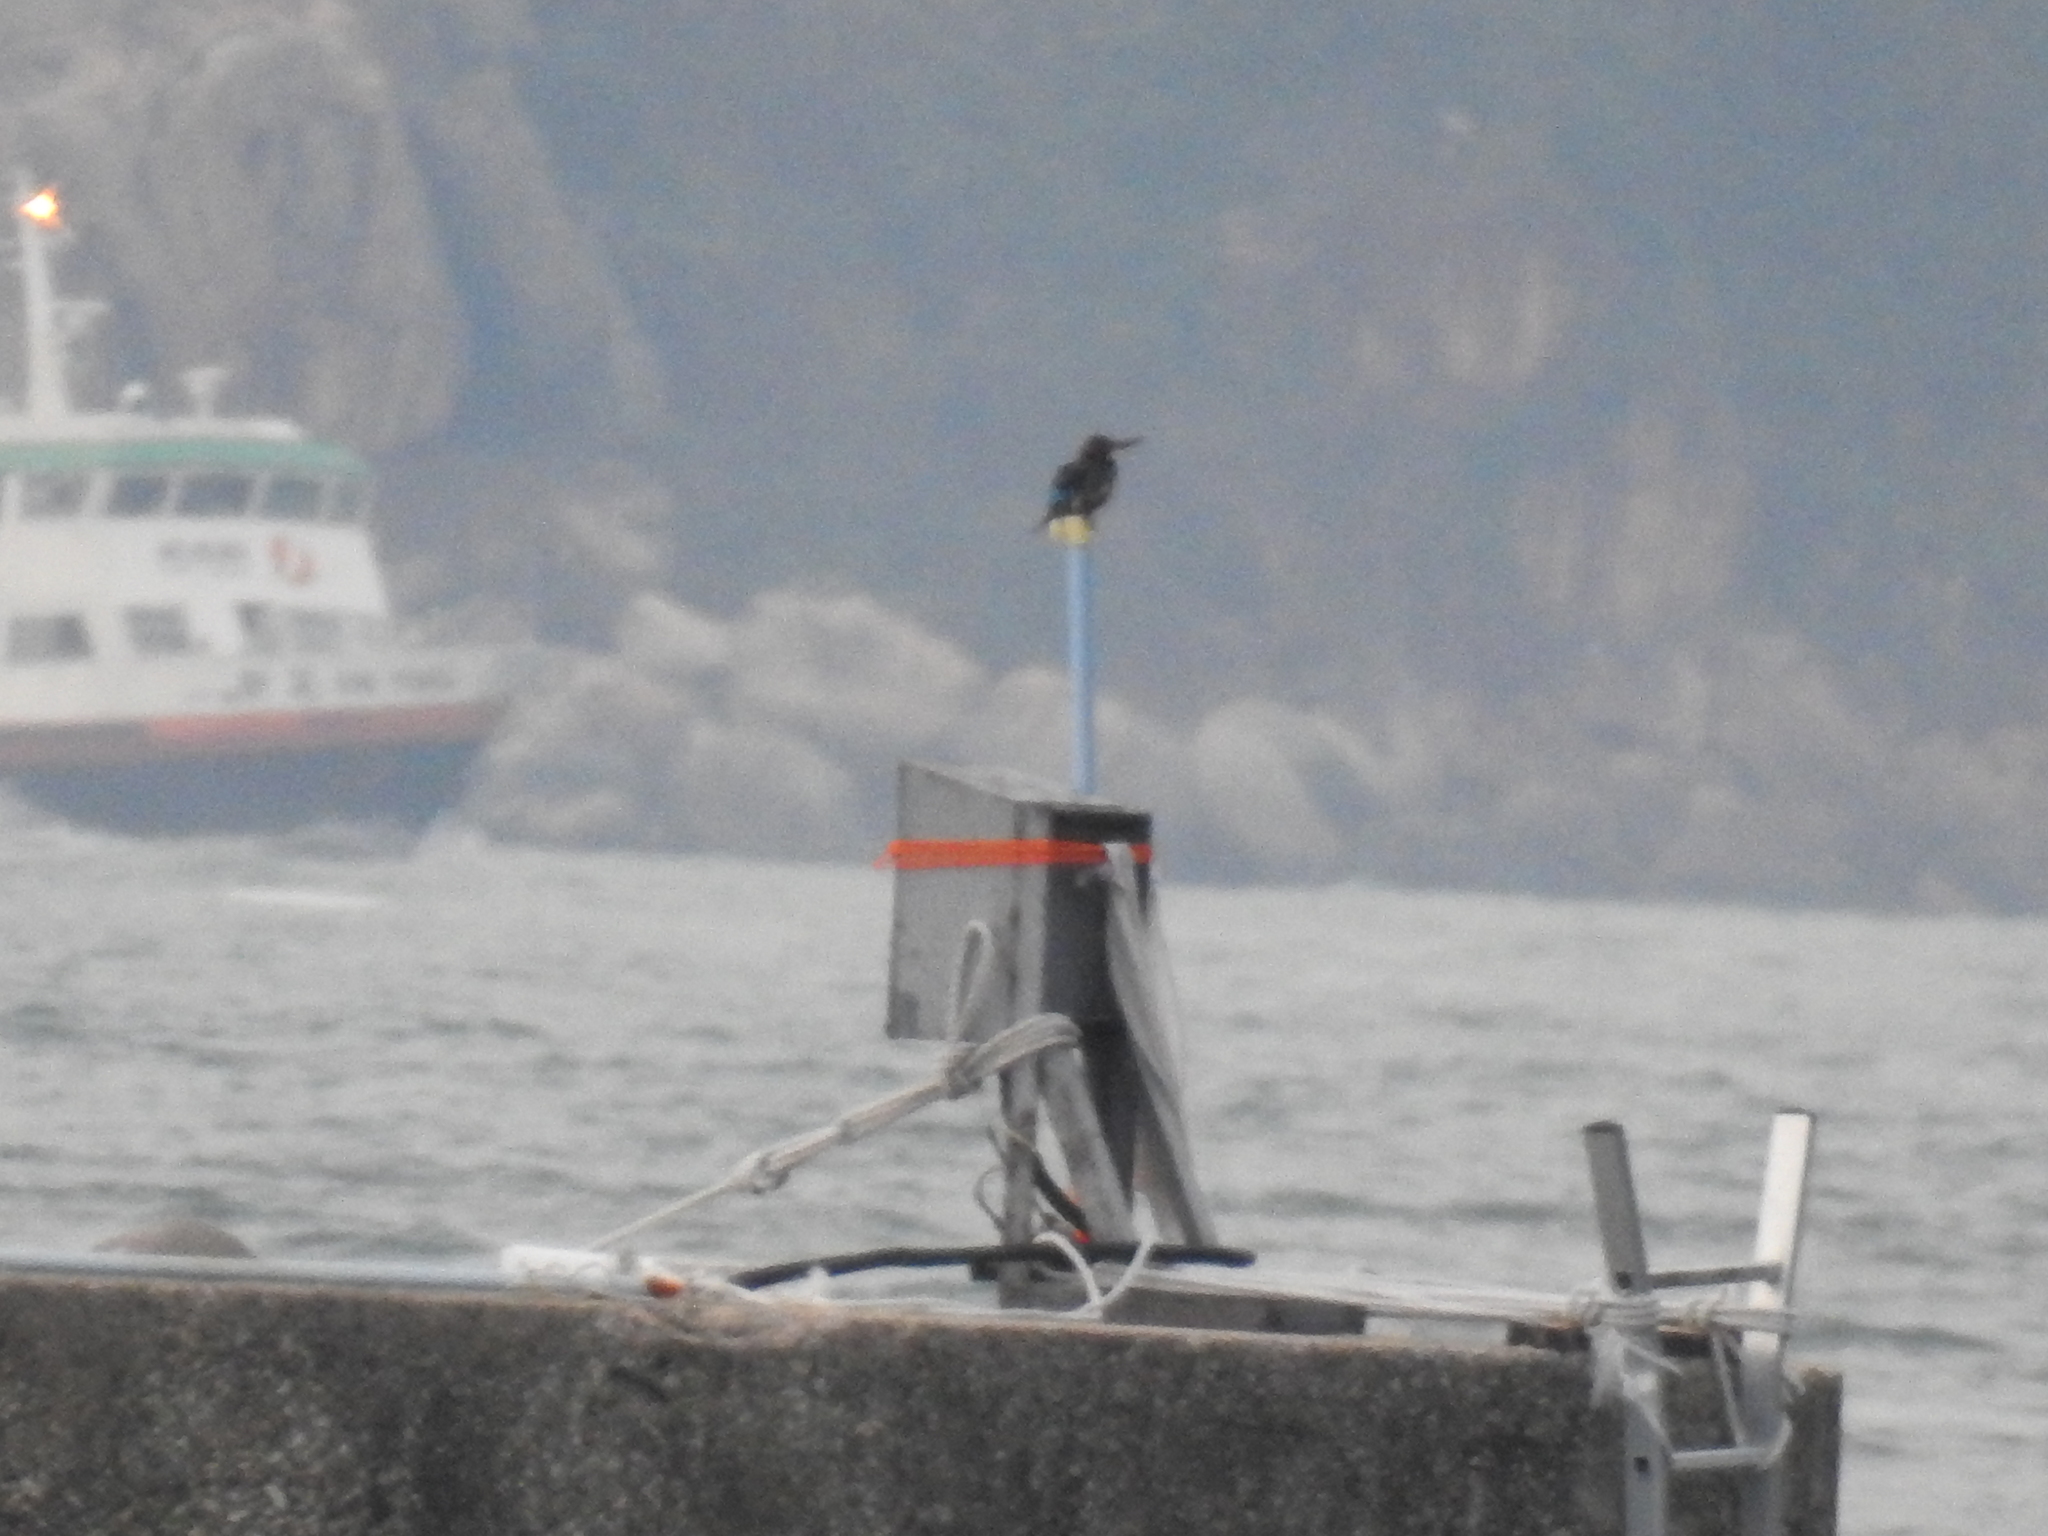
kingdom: Animalia
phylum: Chordata
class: Aves
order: Coraciiformes
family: Alcedinidae
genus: Halcyon
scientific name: Halcyon smyrnensis
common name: White-throated kingfisher
